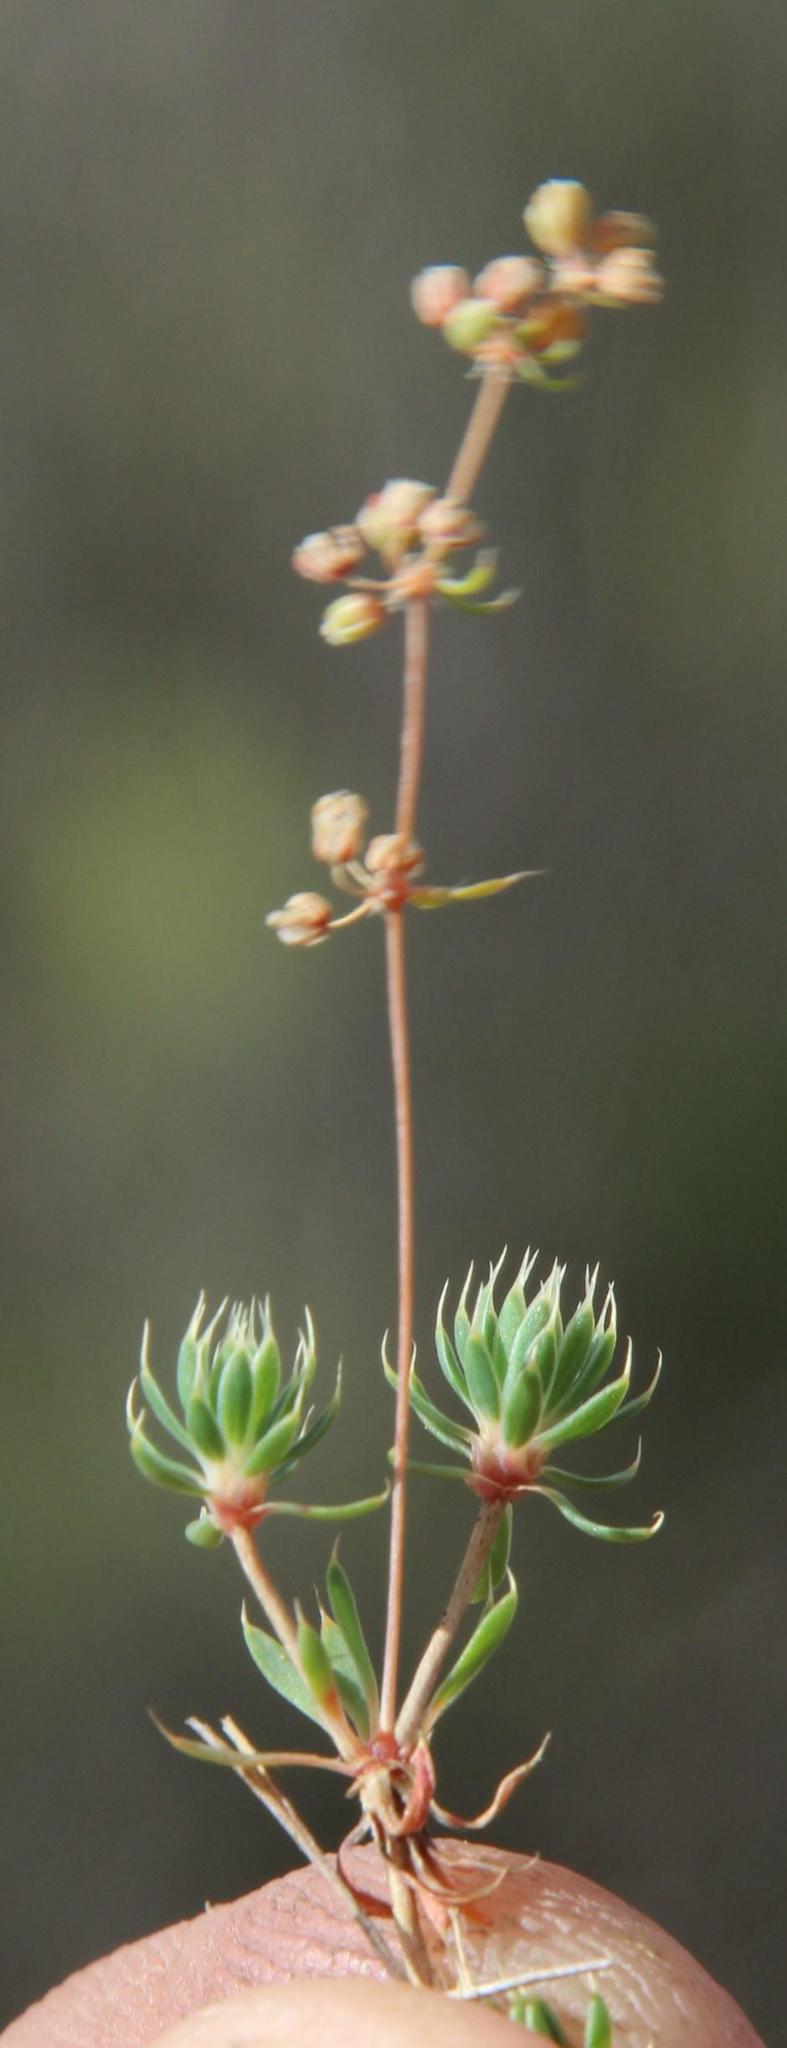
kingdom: Plantae
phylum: Tracheophyta
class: Magnoliopsida
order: Caryophyllales
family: Molluginaceae
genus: Psammotropha
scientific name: Psammotropha mucronata
